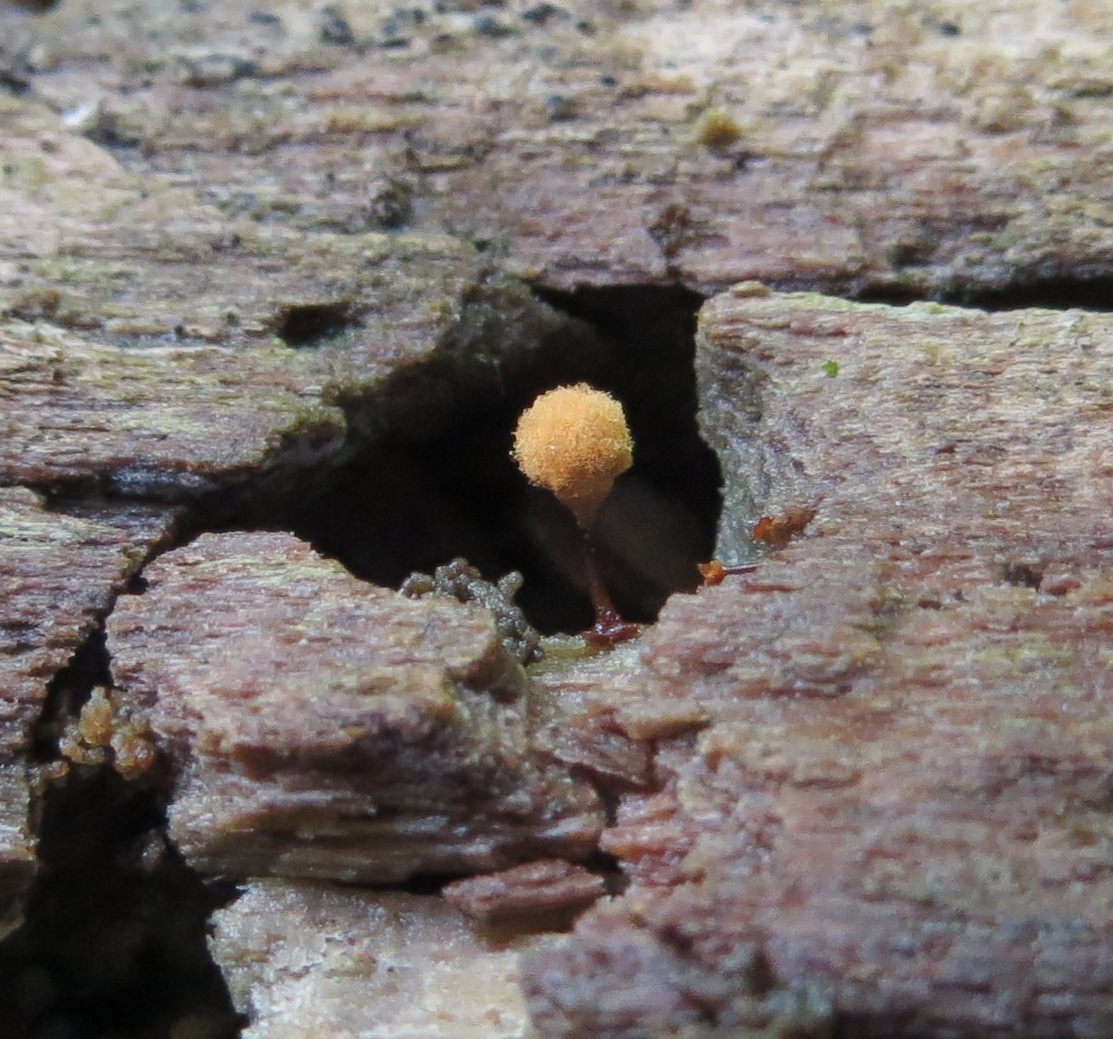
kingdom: Protozoa
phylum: Mycetozoa
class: Myxomycetes
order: Trichiales
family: Arcyriaceae
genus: Hemitrichia
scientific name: Hemitrichia calyculata
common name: Push pin slime mold
